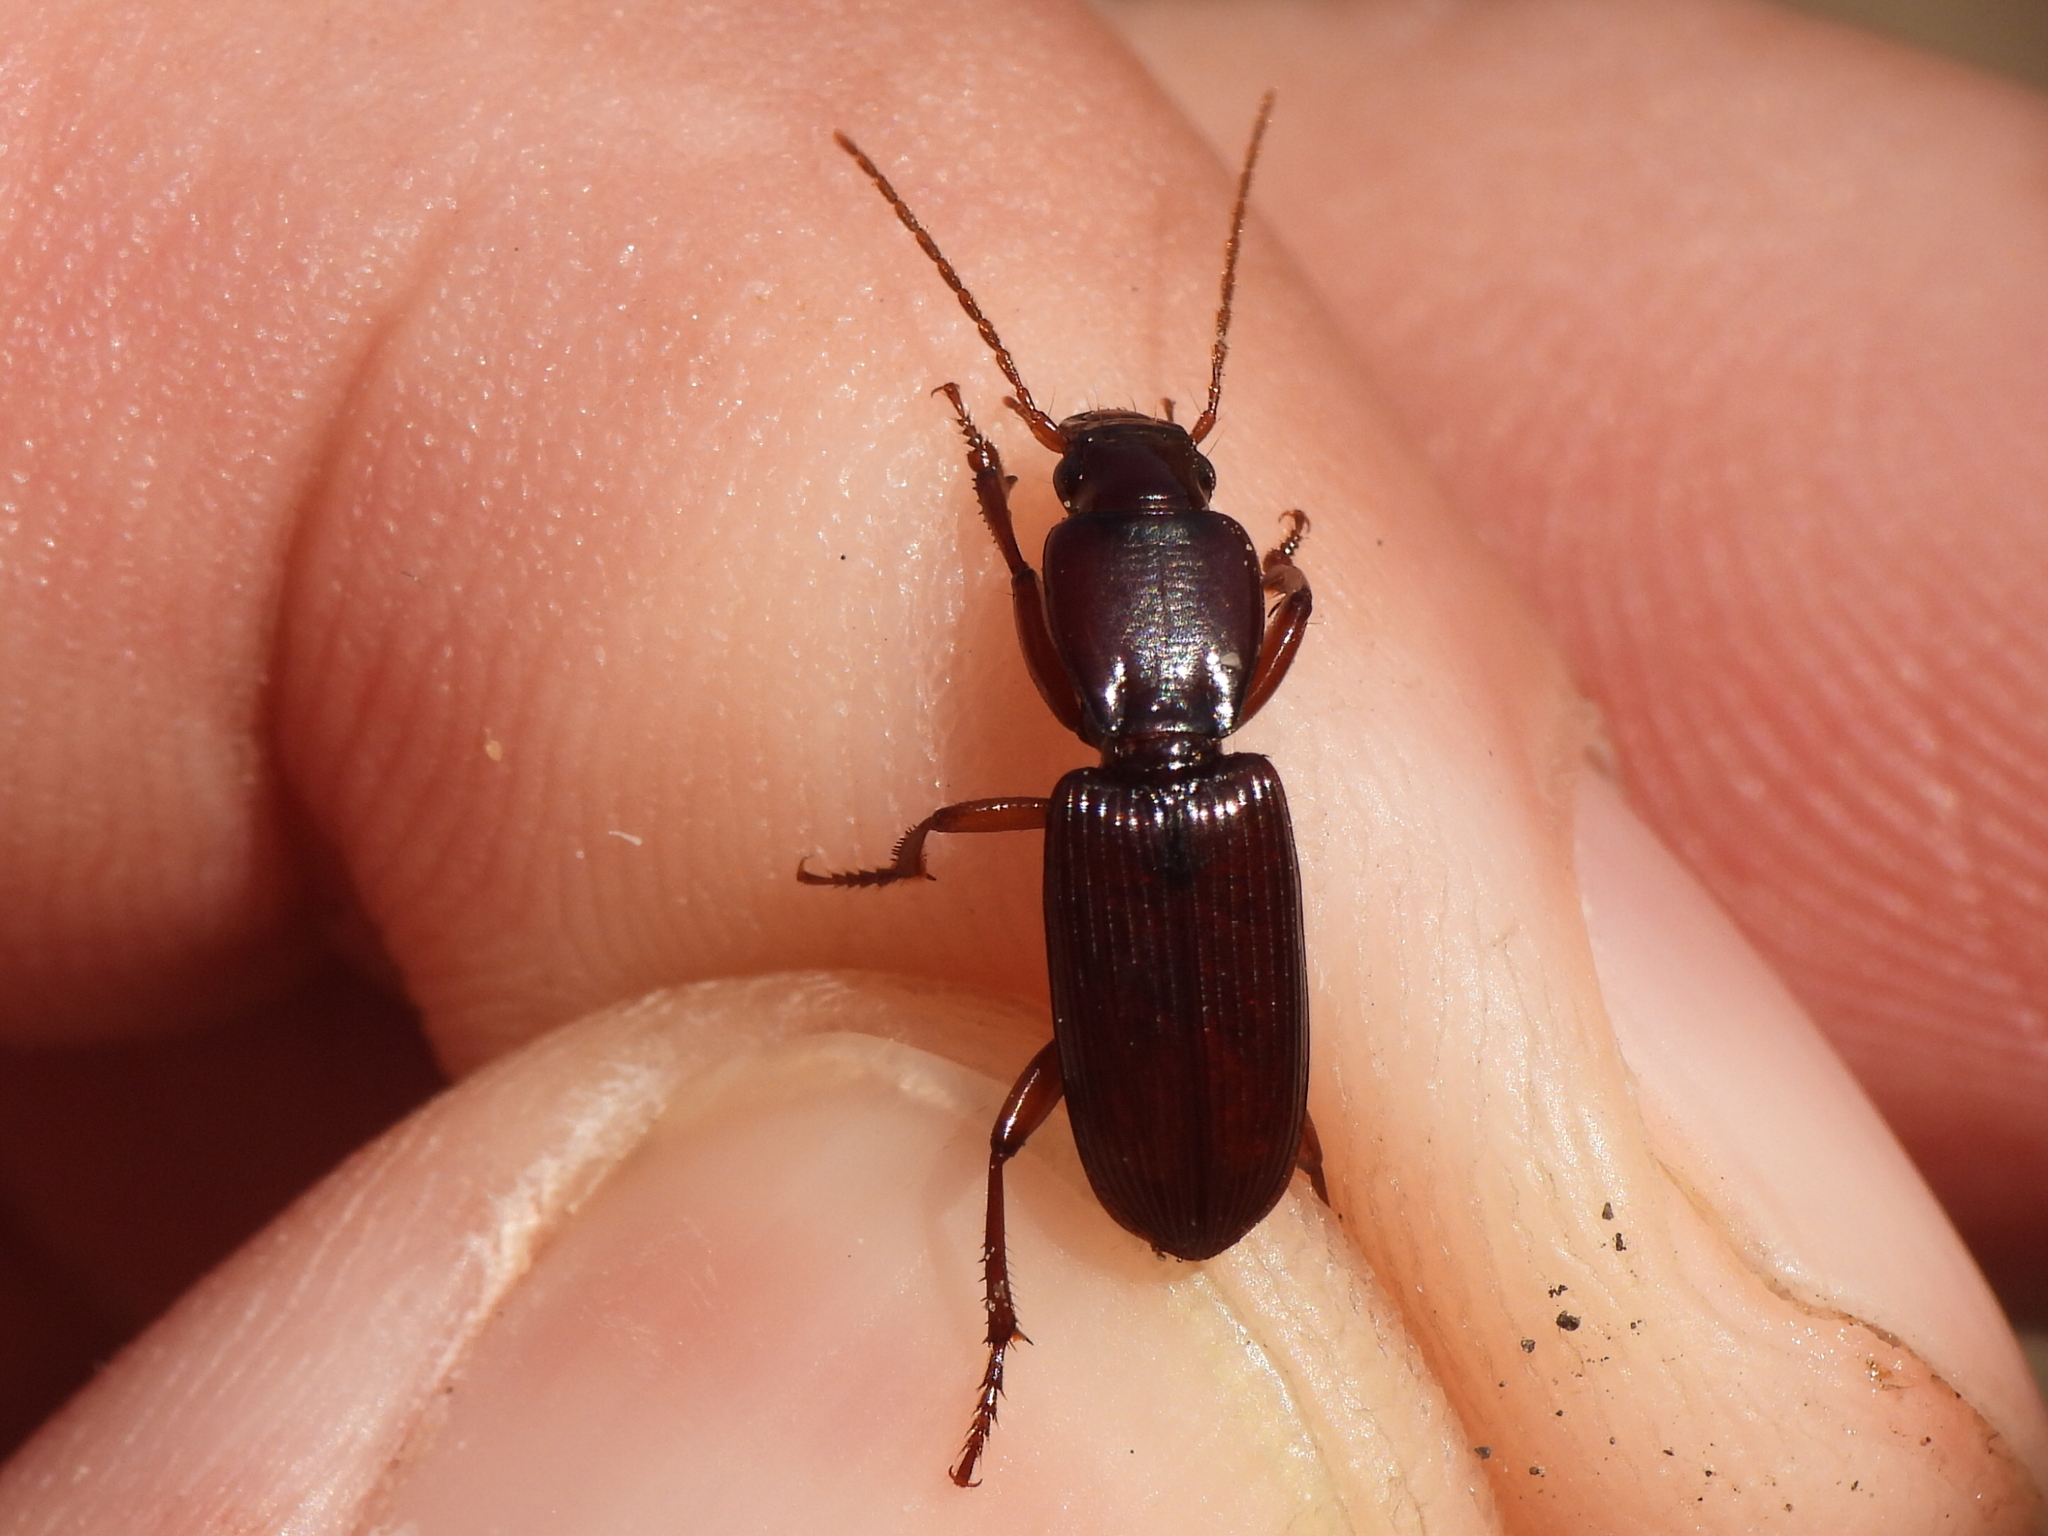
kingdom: Animalia
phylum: Arthropoda
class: Insecta
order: Coleoptera
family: Carabidae
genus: Stenomorphus
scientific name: Stenomorphus californicus
